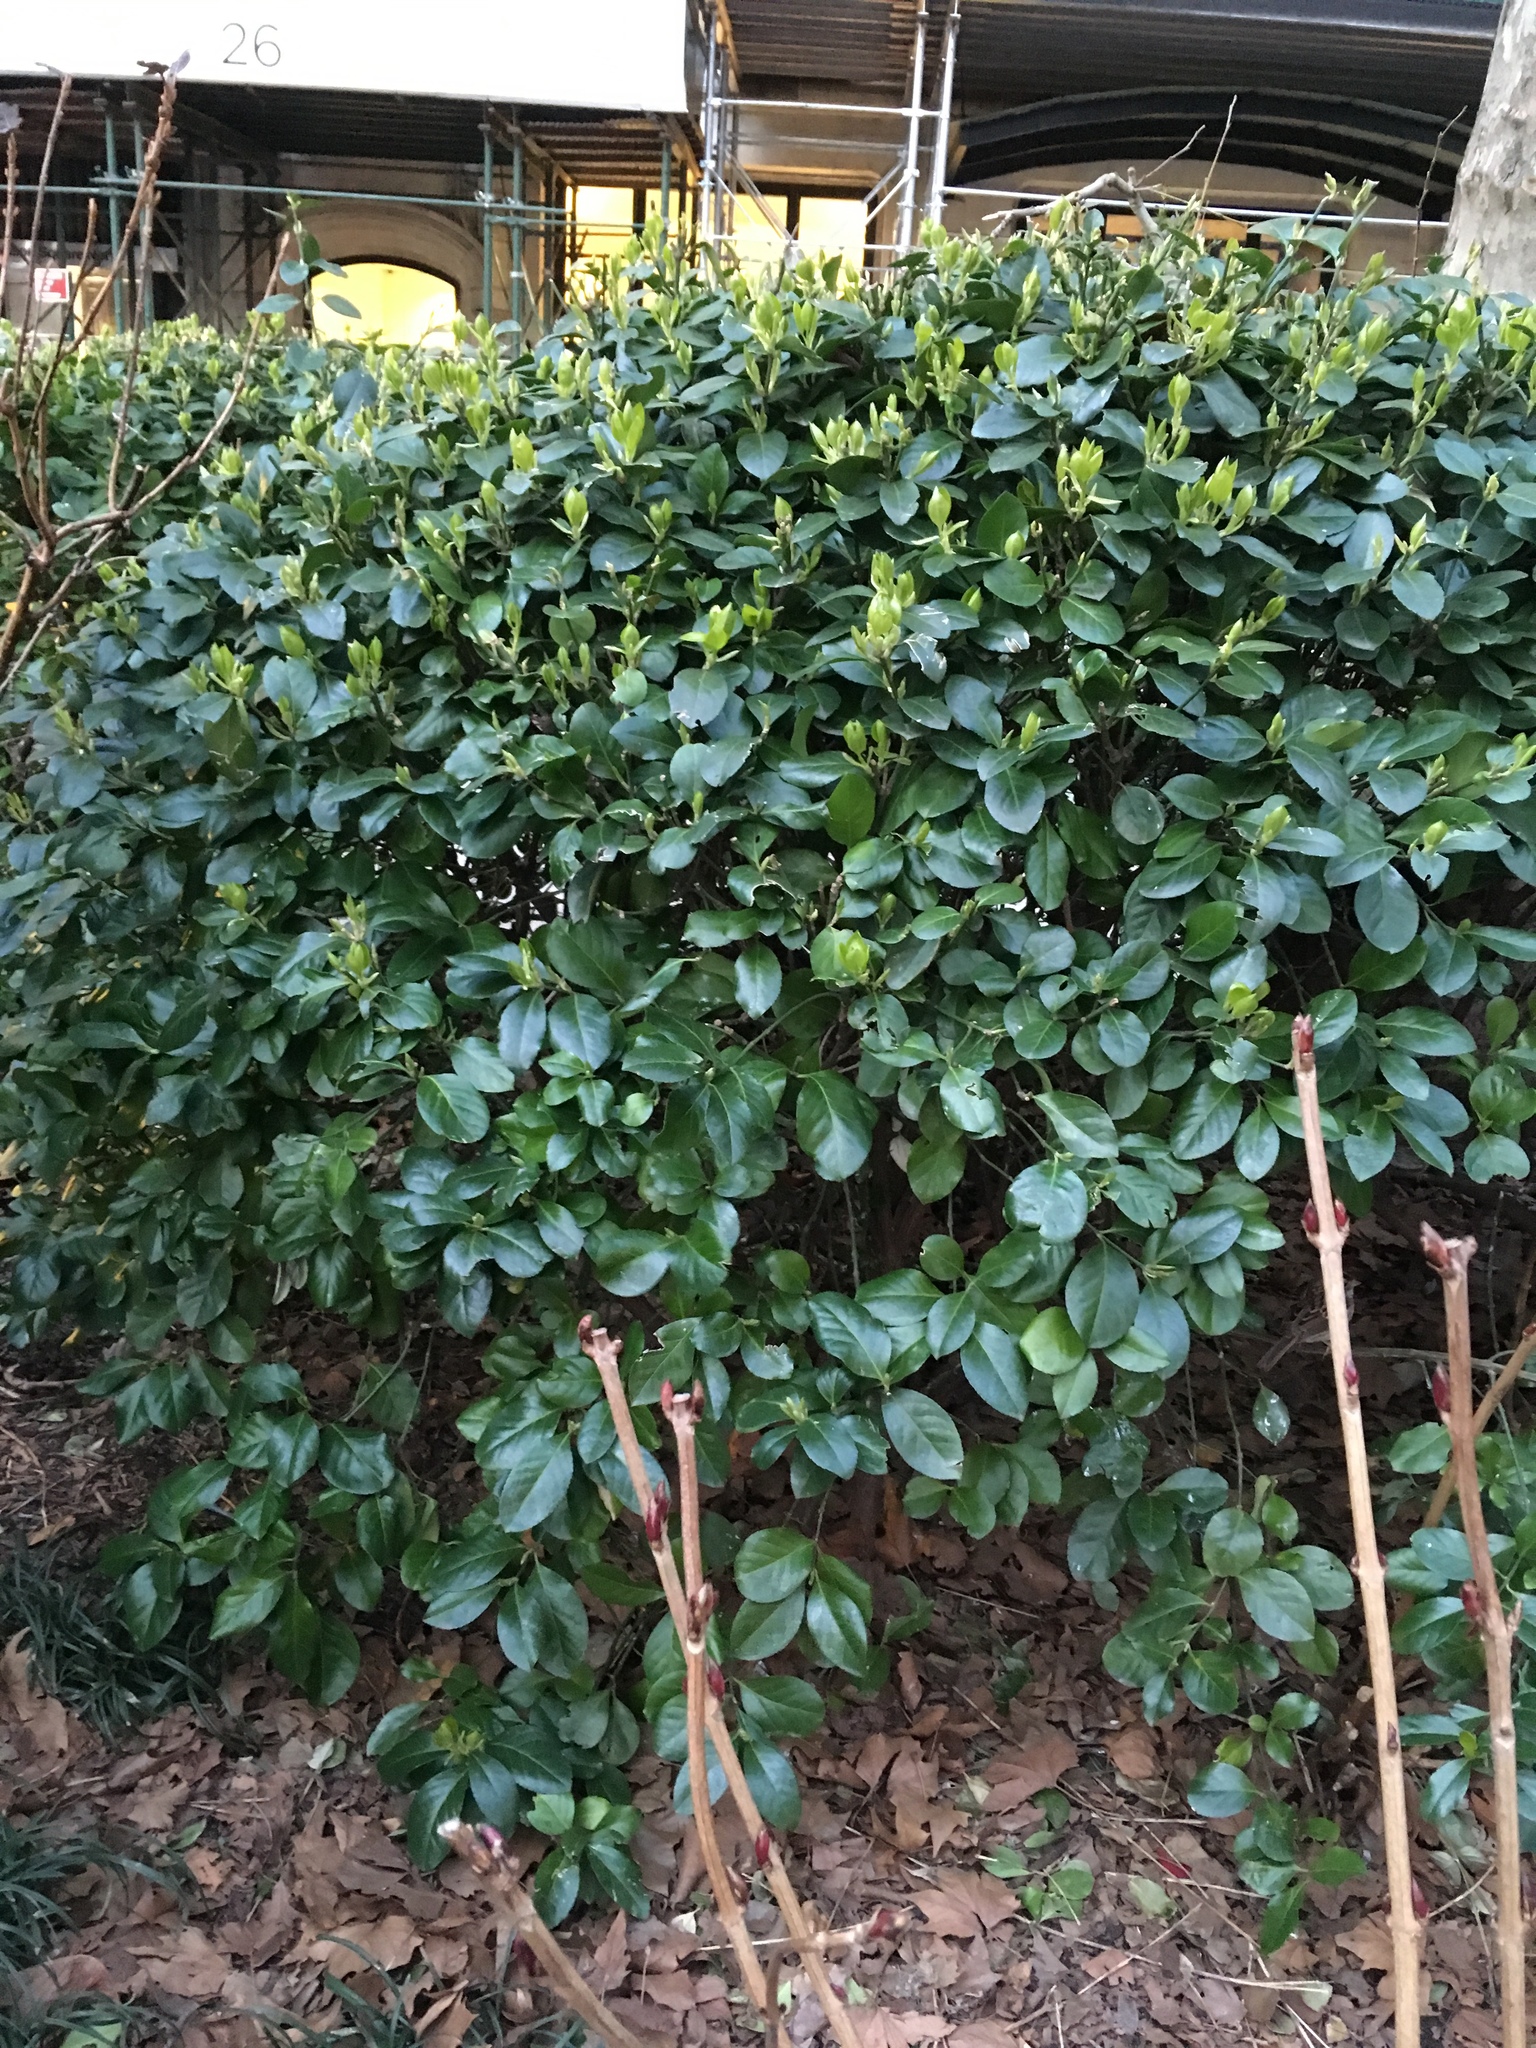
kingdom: Plantae
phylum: Tracheophyta
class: Magnoliopsida
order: Celastrales
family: Celastraceae
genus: Euonymus
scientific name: Euonymus japonicus
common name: Japanese spindletree
